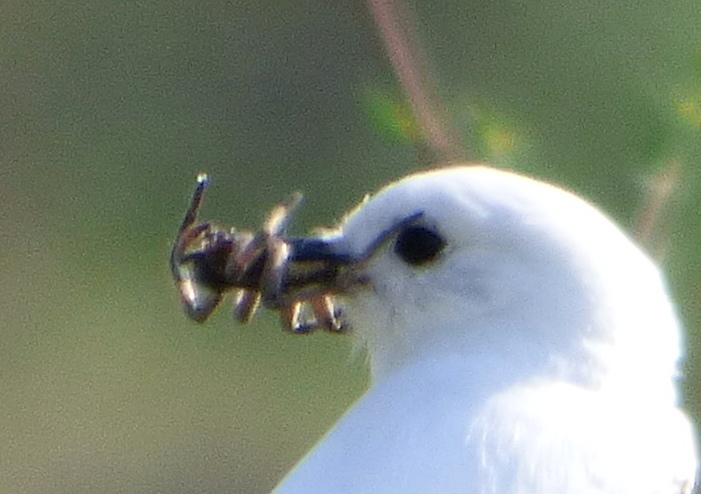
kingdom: Animalia
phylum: Arthropoda
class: Arachnida
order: Araneae
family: Lycosidae
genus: Lycosa
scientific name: Lycosa erythrognatha
